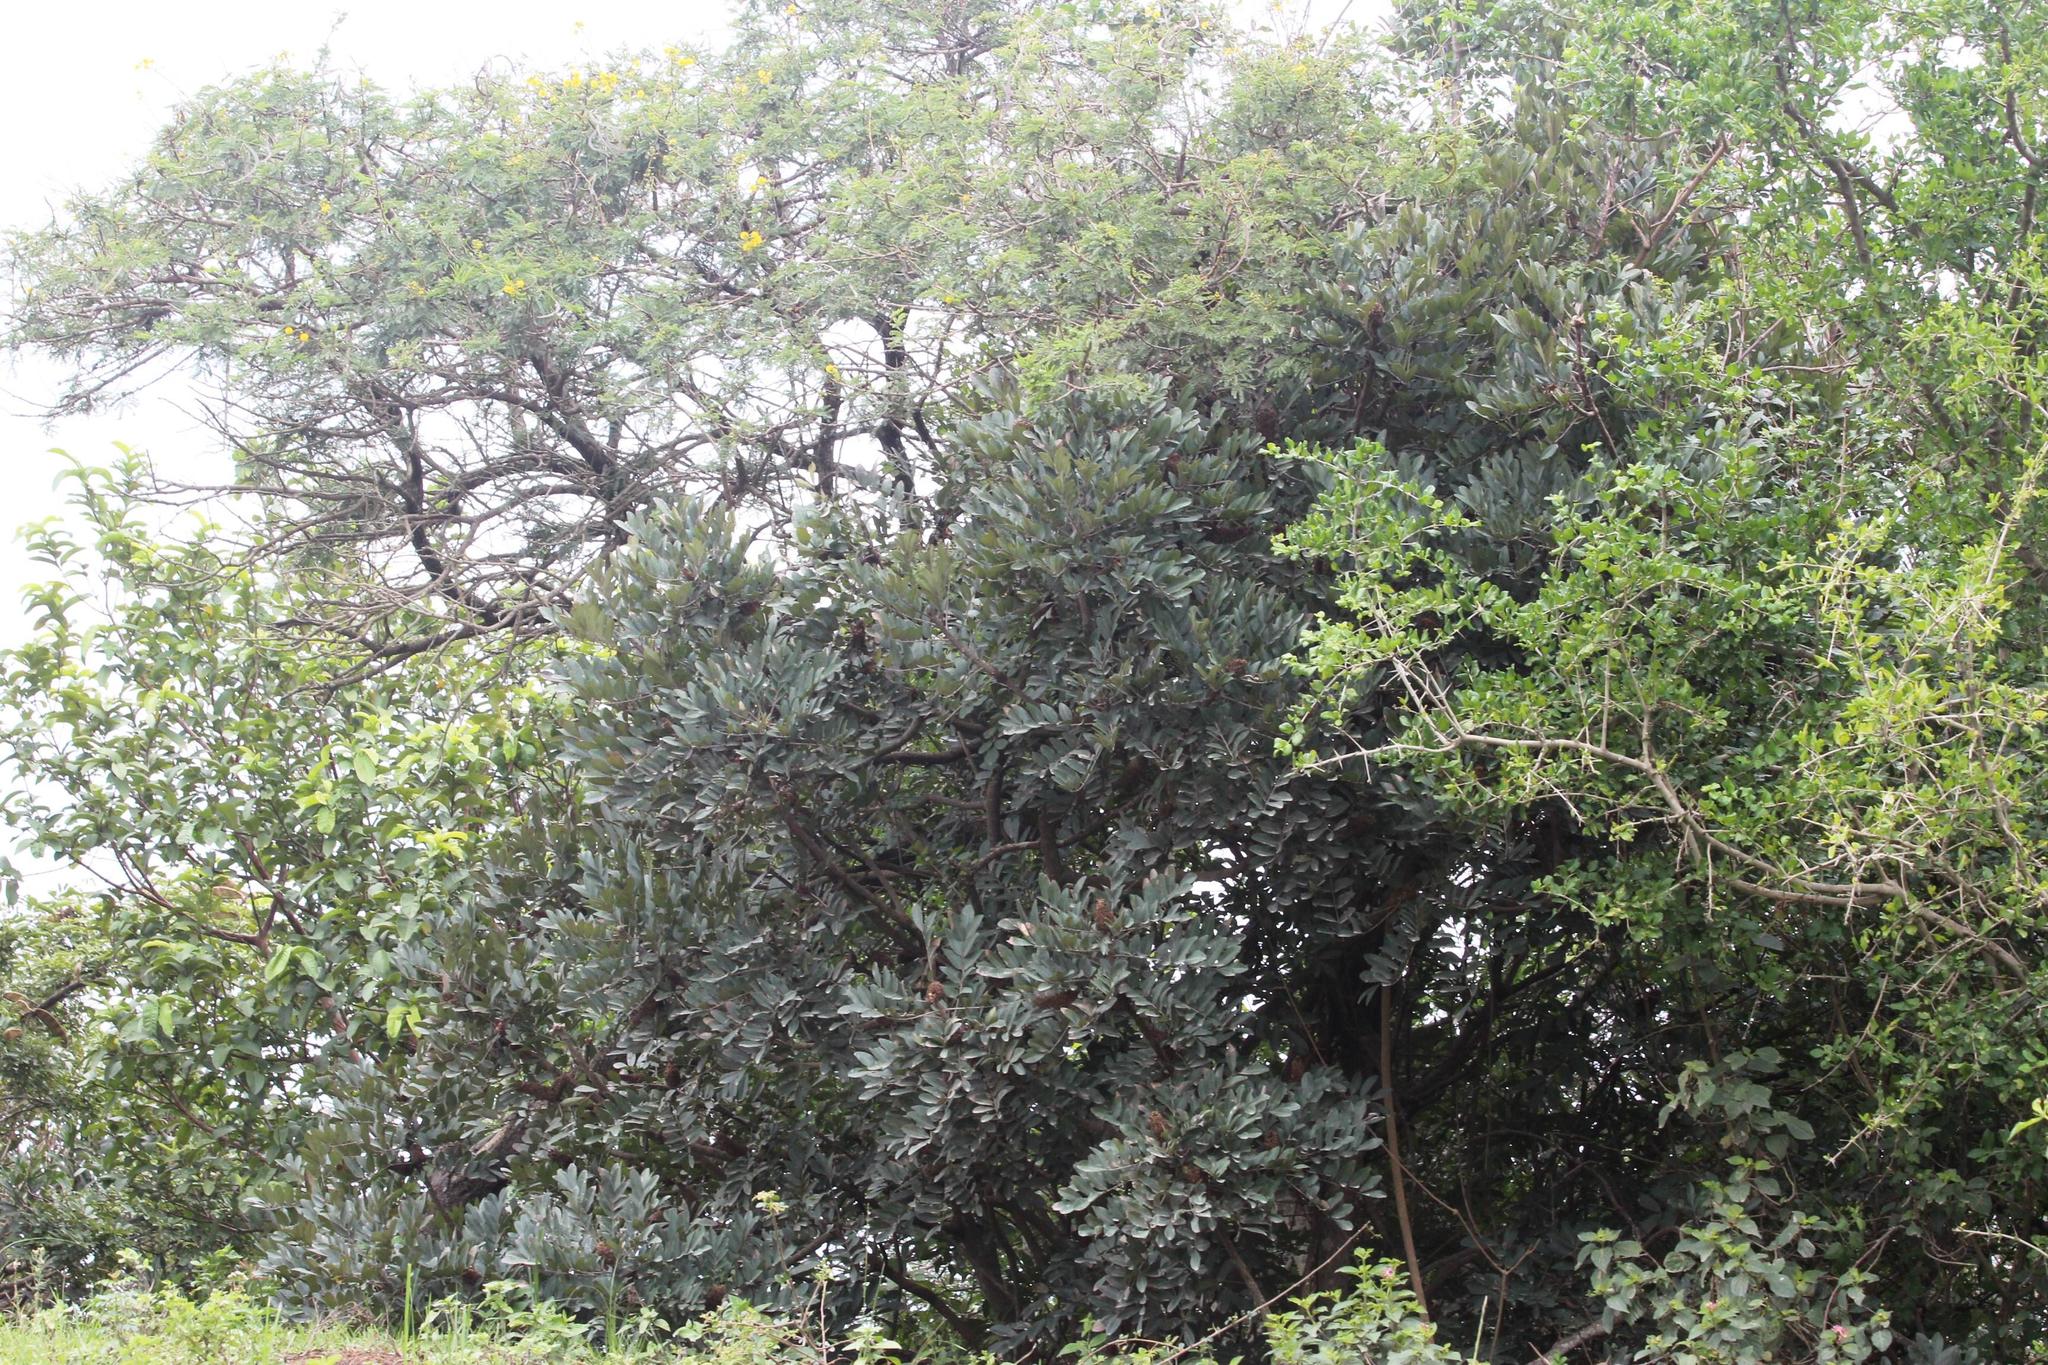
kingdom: Plantae
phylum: Tracheophyta
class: Magnoliopsida
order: Geraniales
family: Melianthaceae
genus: Bersama
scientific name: Bersama swinnyi
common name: Coastal white ash
